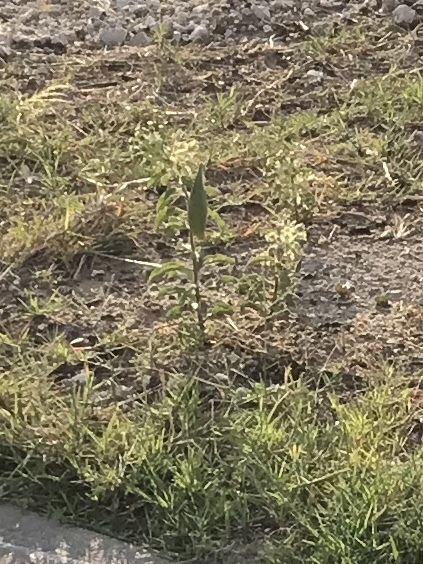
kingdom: Plantae
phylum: Tracheophyta
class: Magnoliopsida
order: Gentianales
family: Apocynaceae
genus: Asclepias
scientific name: Asclepias oenotheroides
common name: Zizotes milkweed
